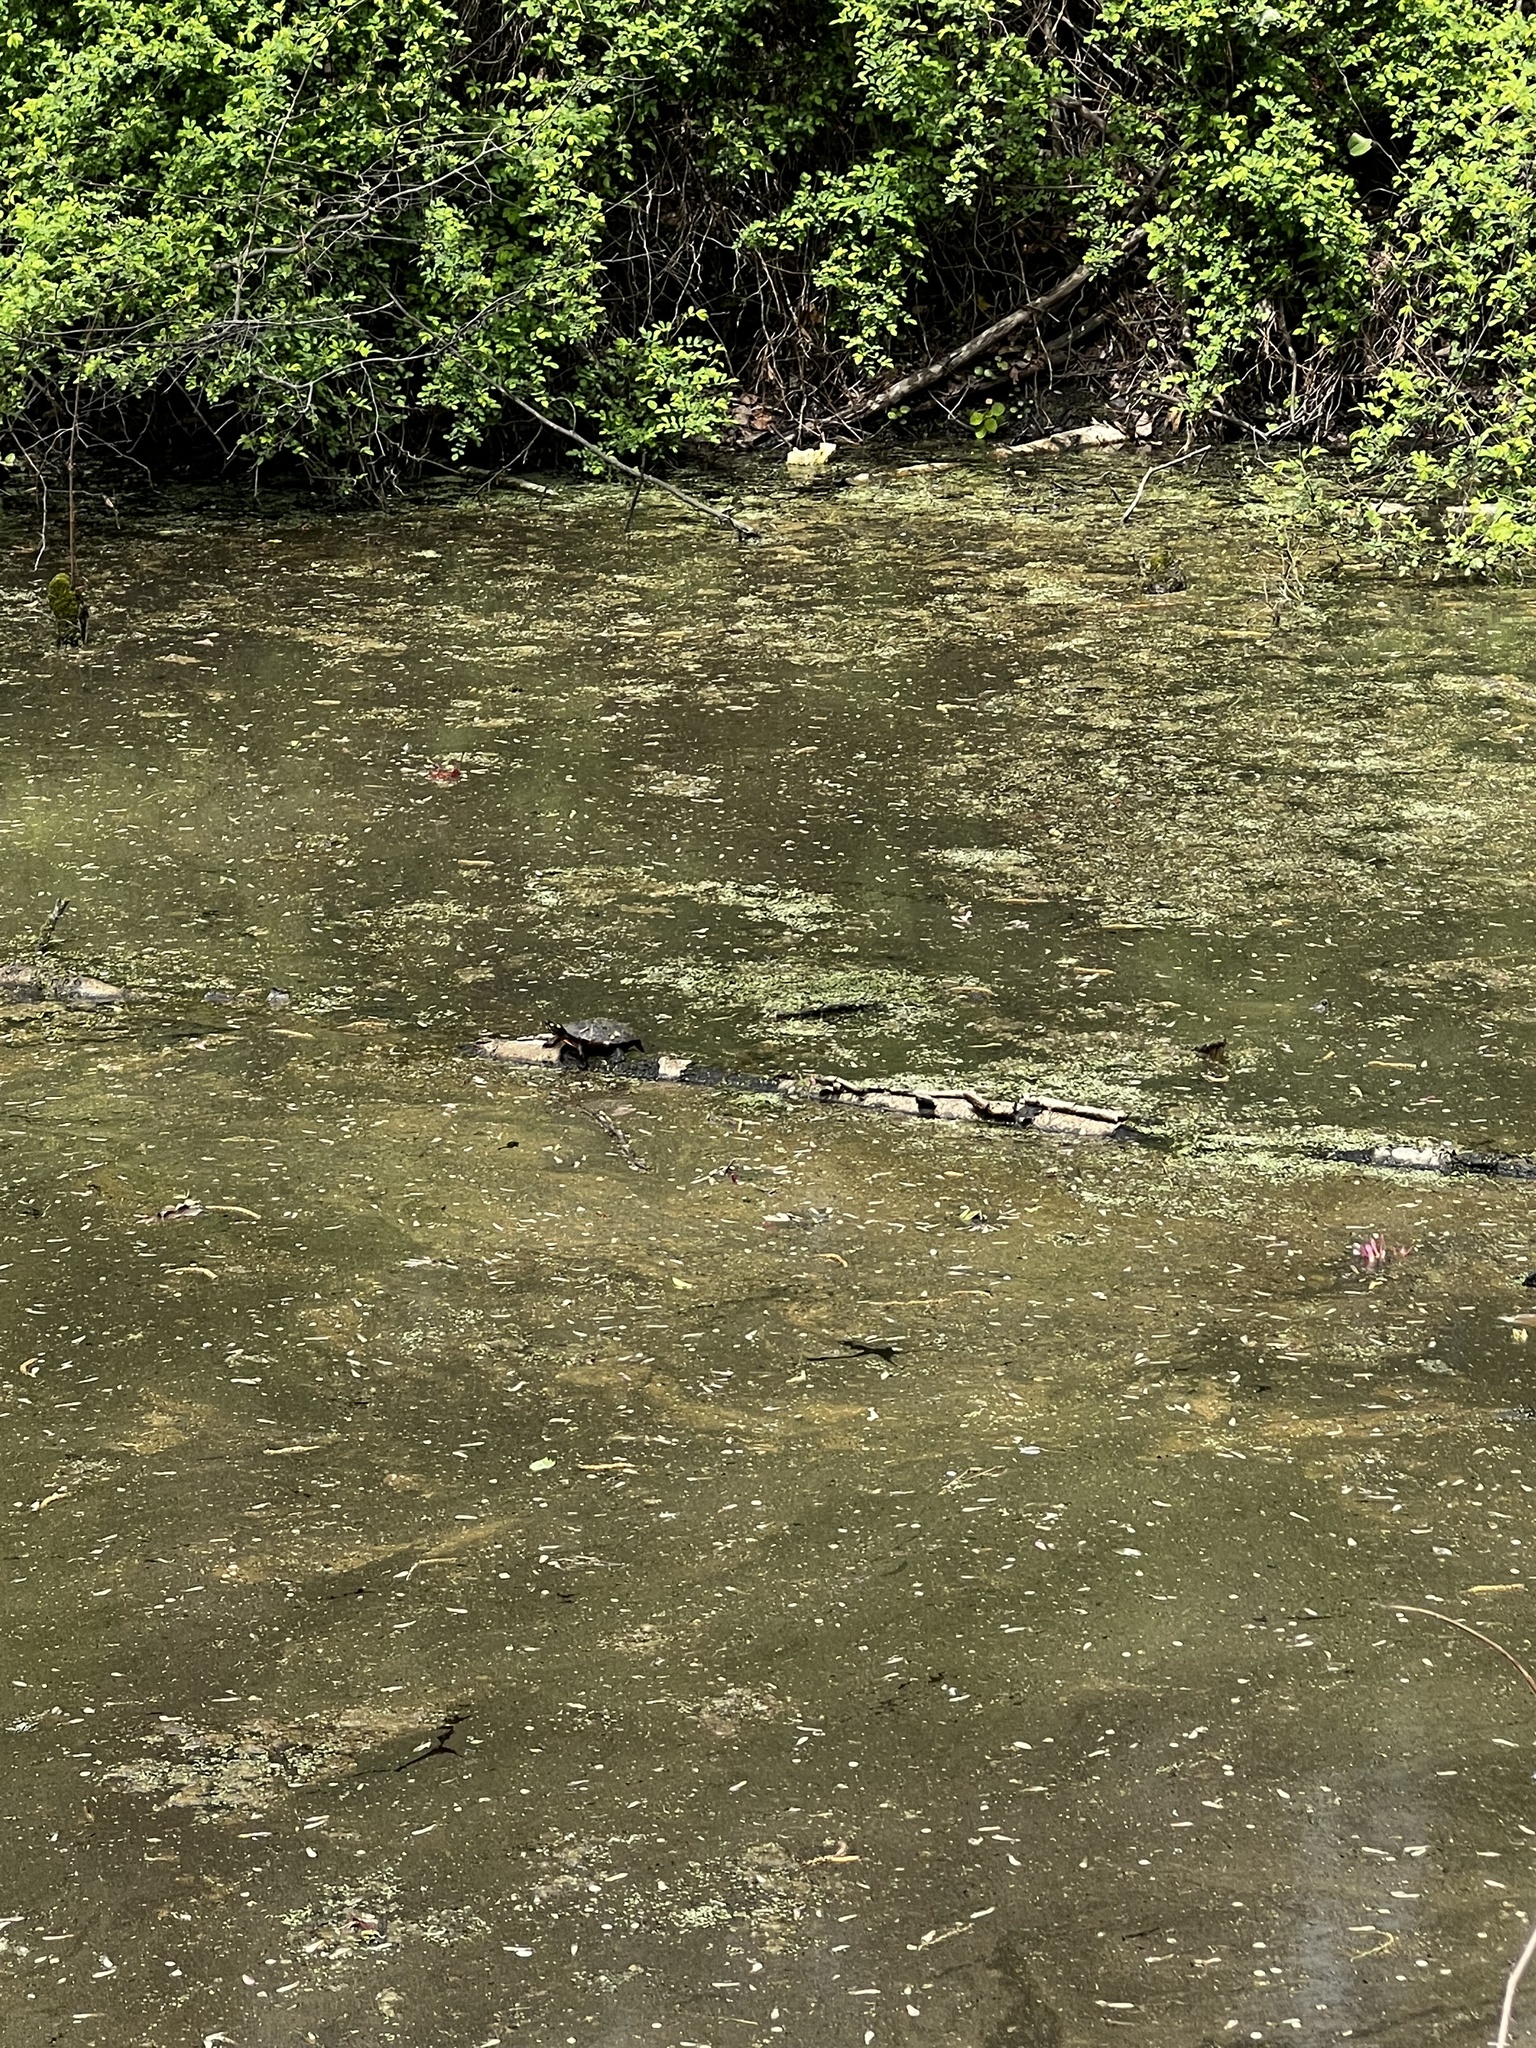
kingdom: Animalia
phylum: Chordata
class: Testudines
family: Emydidae
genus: Chrysemys
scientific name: Chrysemys picta
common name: Painted turtle
